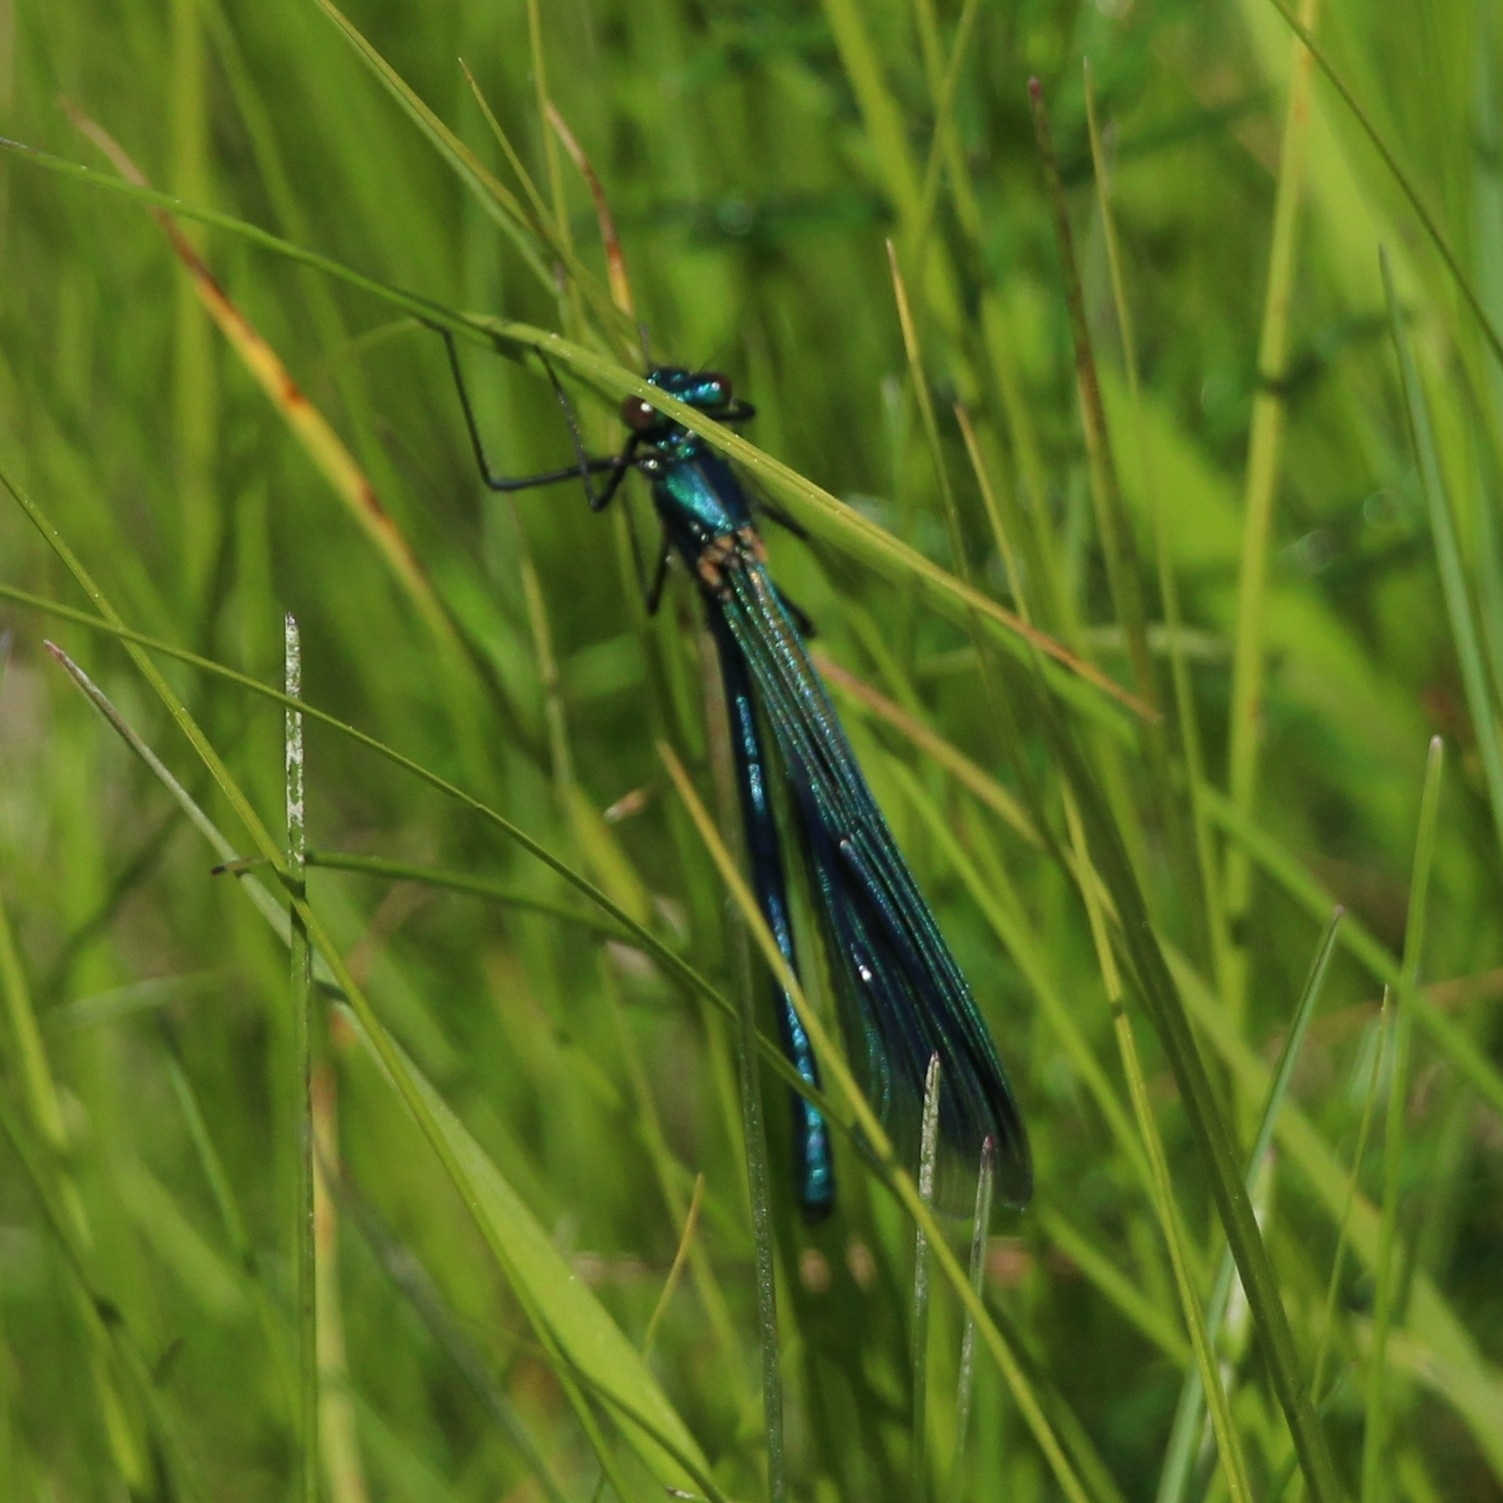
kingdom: Animalia
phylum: Arthropoda
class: Insecta
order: Odonata
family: Calopterygidae
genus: Calopteryx
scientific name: Calopteryx splendens
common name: Banded demoiselle
